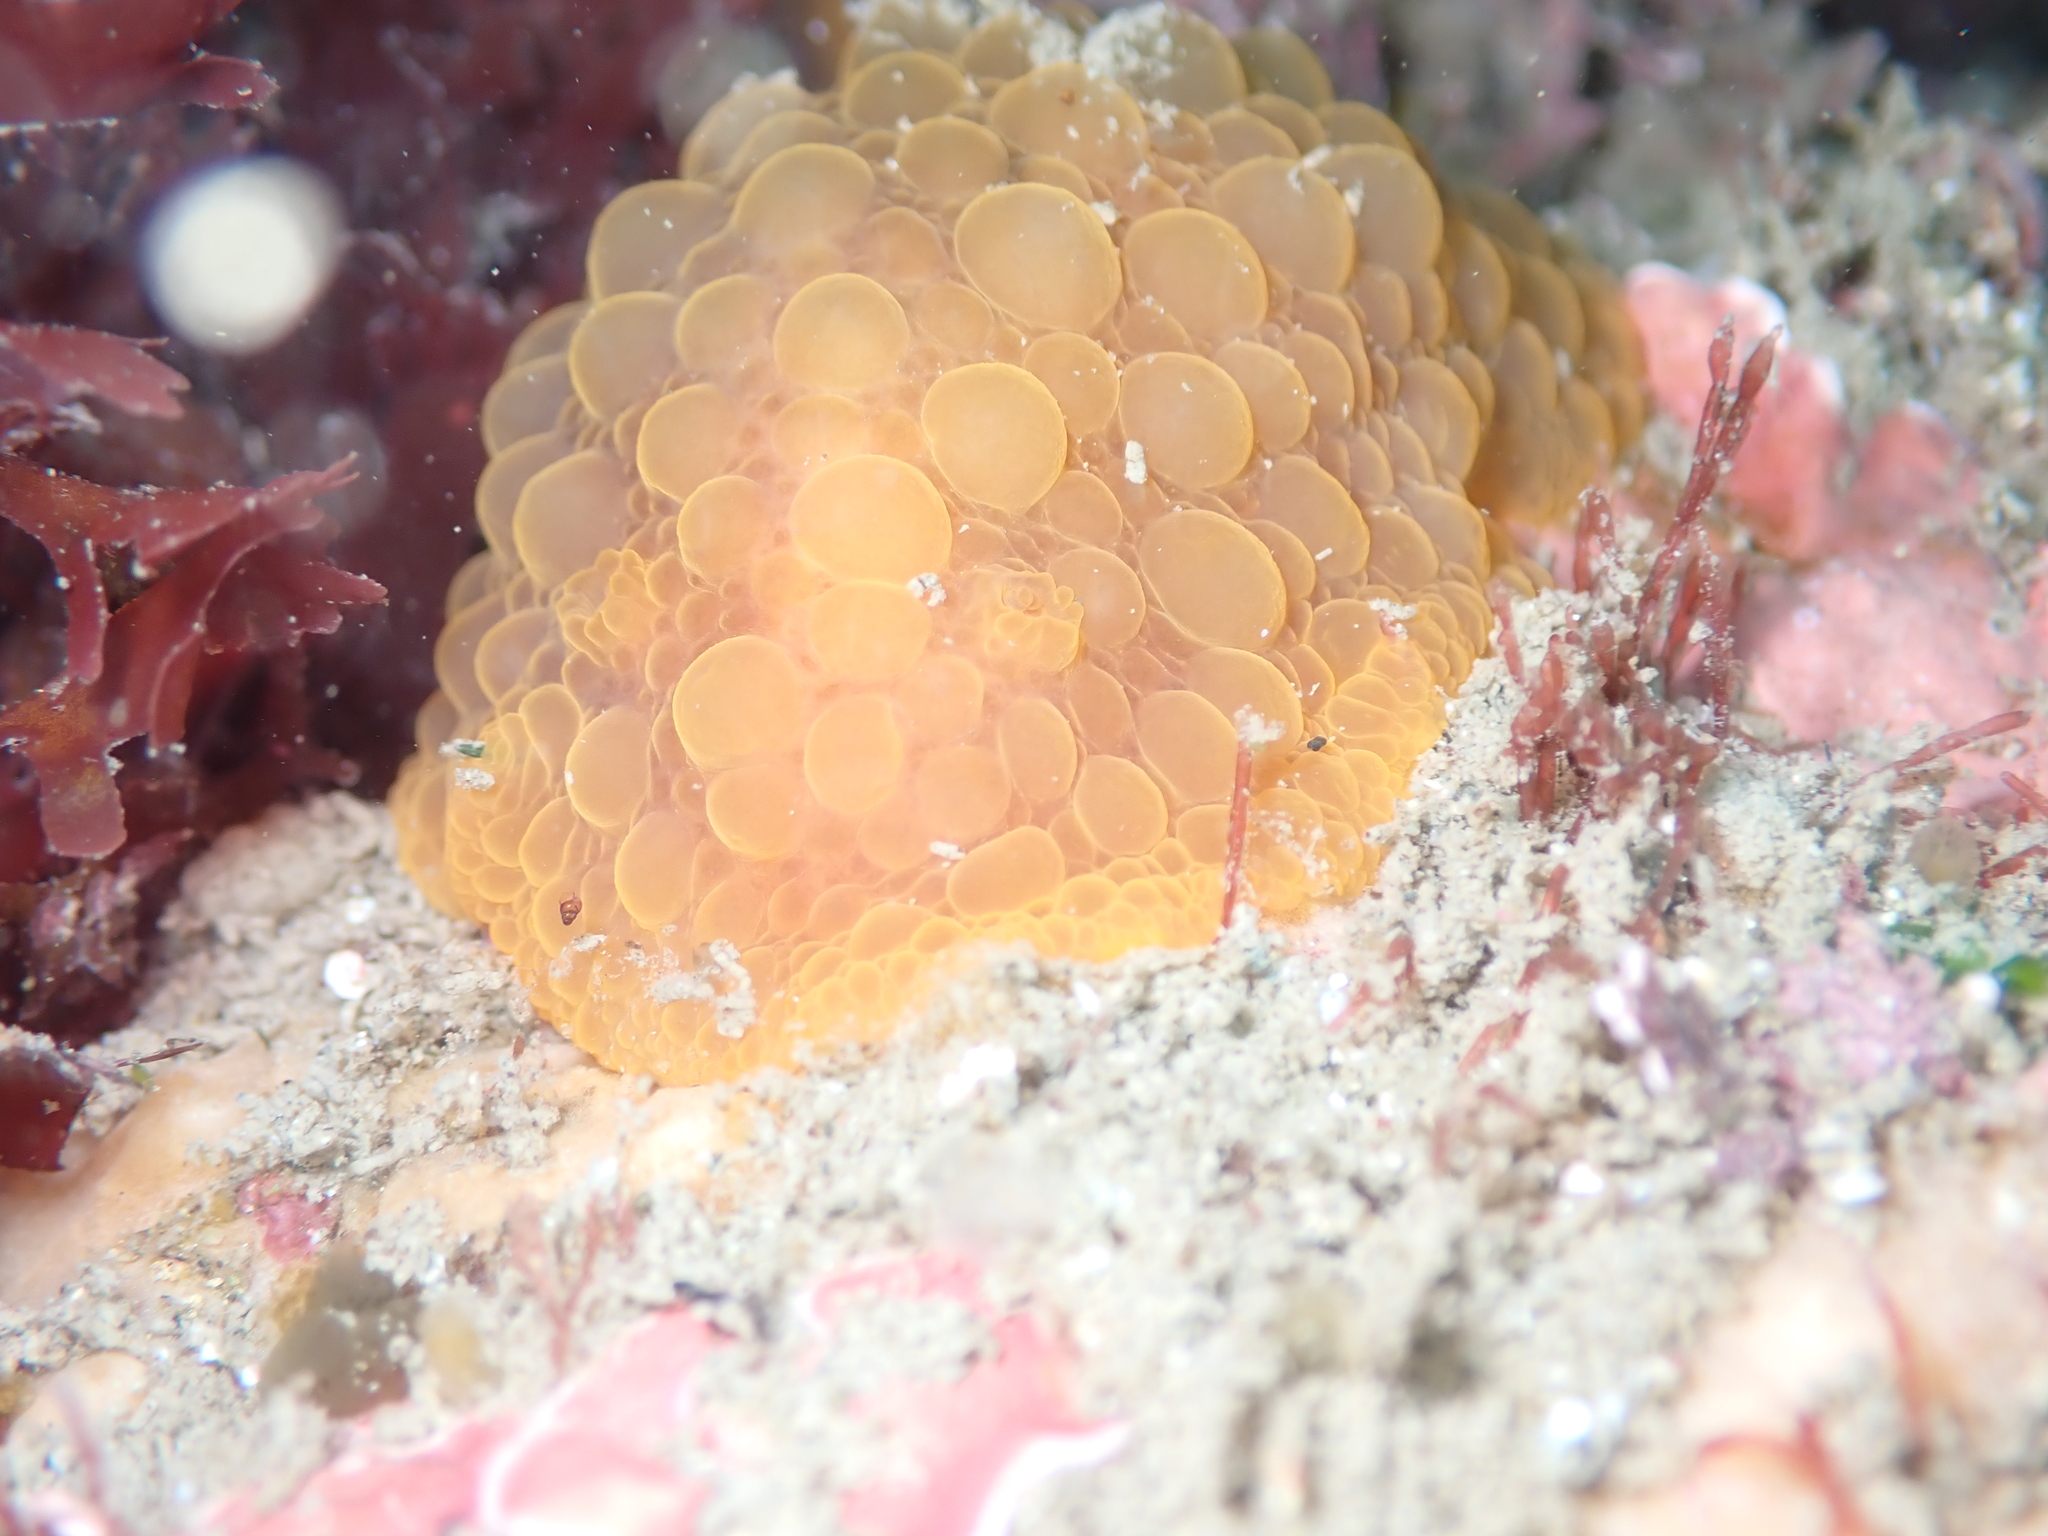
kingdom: Animalia
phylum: Mollusca
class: Gastropoda
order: Nudibranchia
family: Dorididae
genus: Doris
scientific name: Doris wellingtonensis
